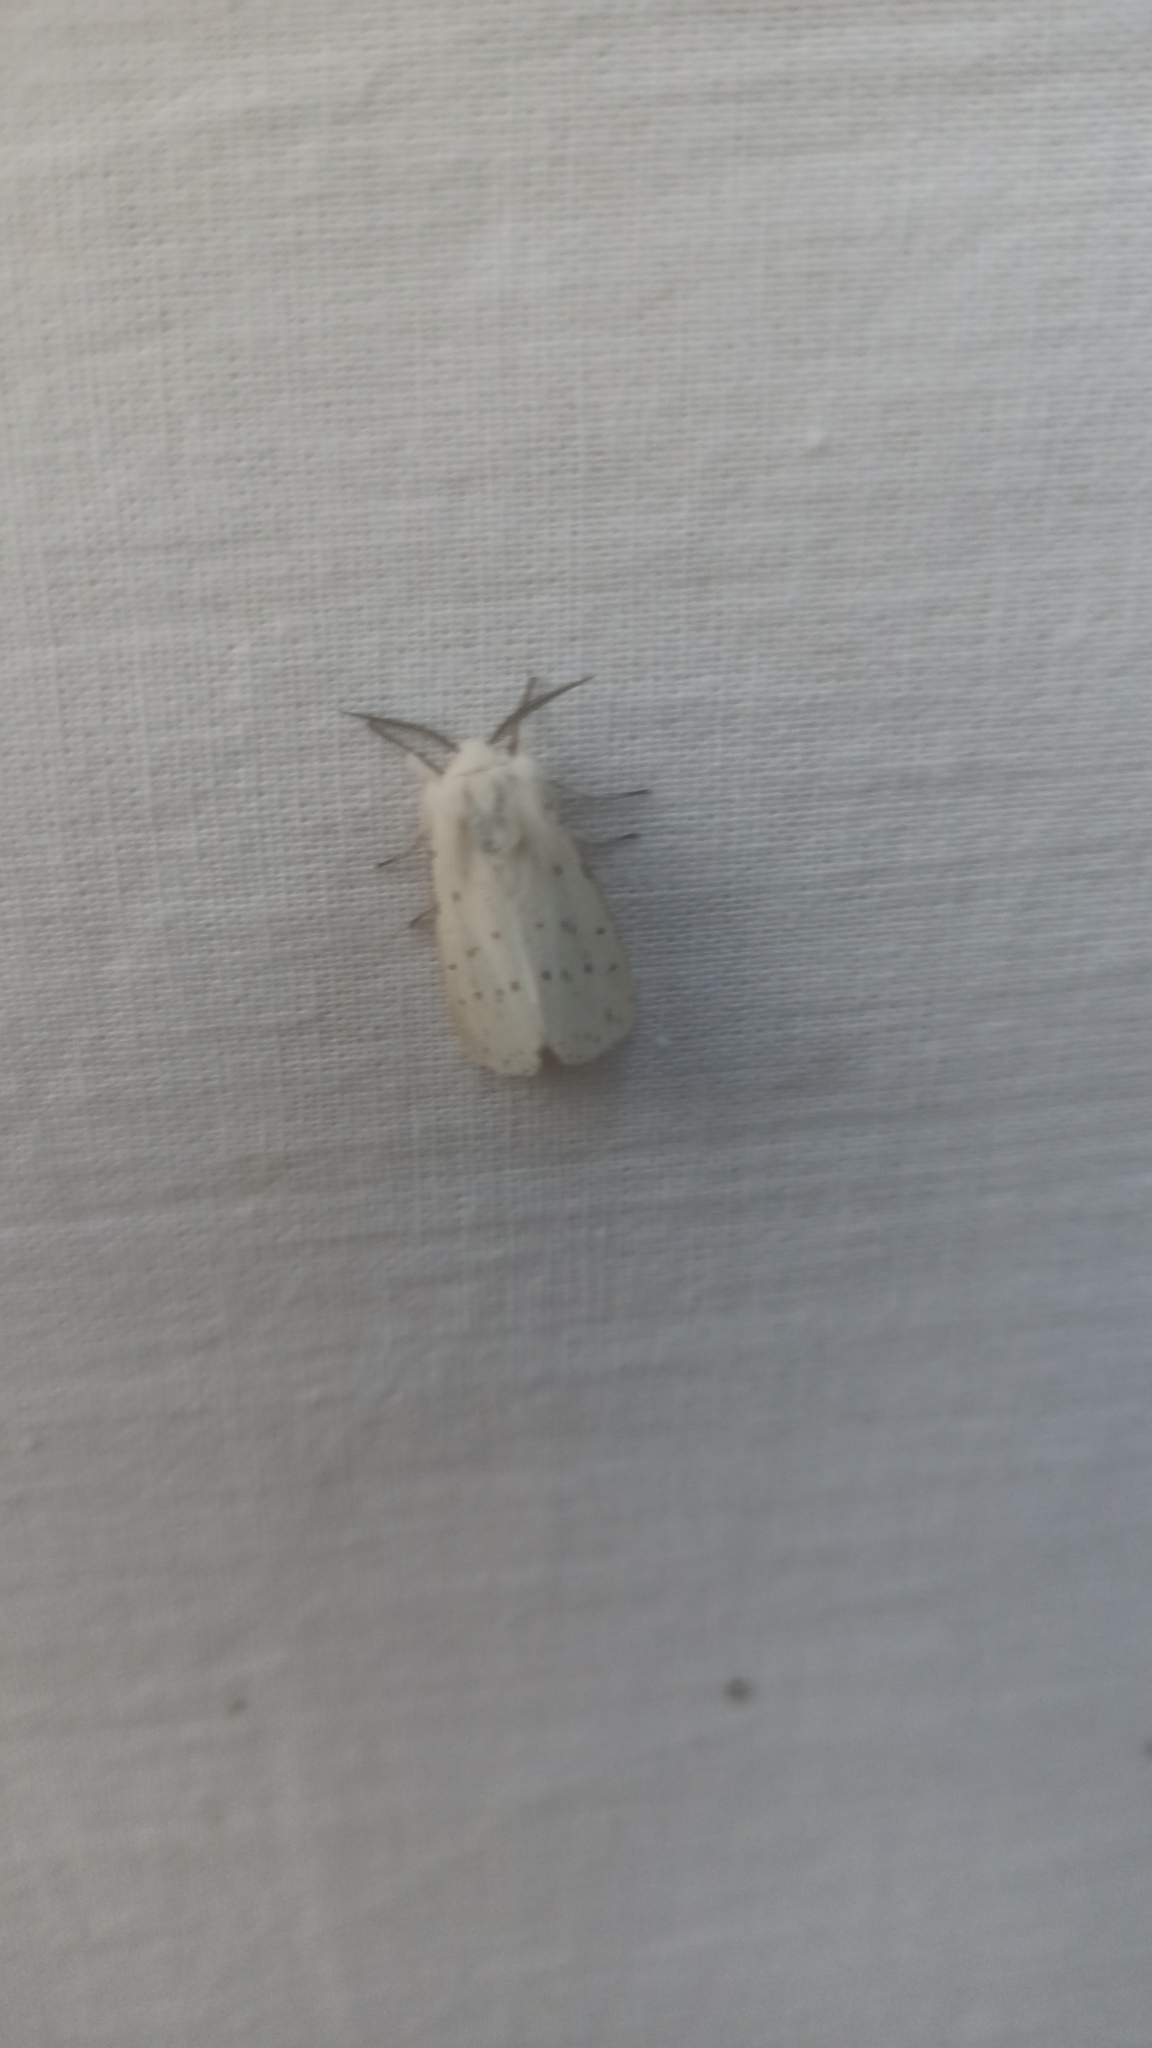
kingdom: Animalia
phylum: Arthropoda
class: Insecta
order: Lepidoptera
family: Erebidae
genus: Spilosoma
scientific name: Spilosoma lubricipeda
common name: White ermine
